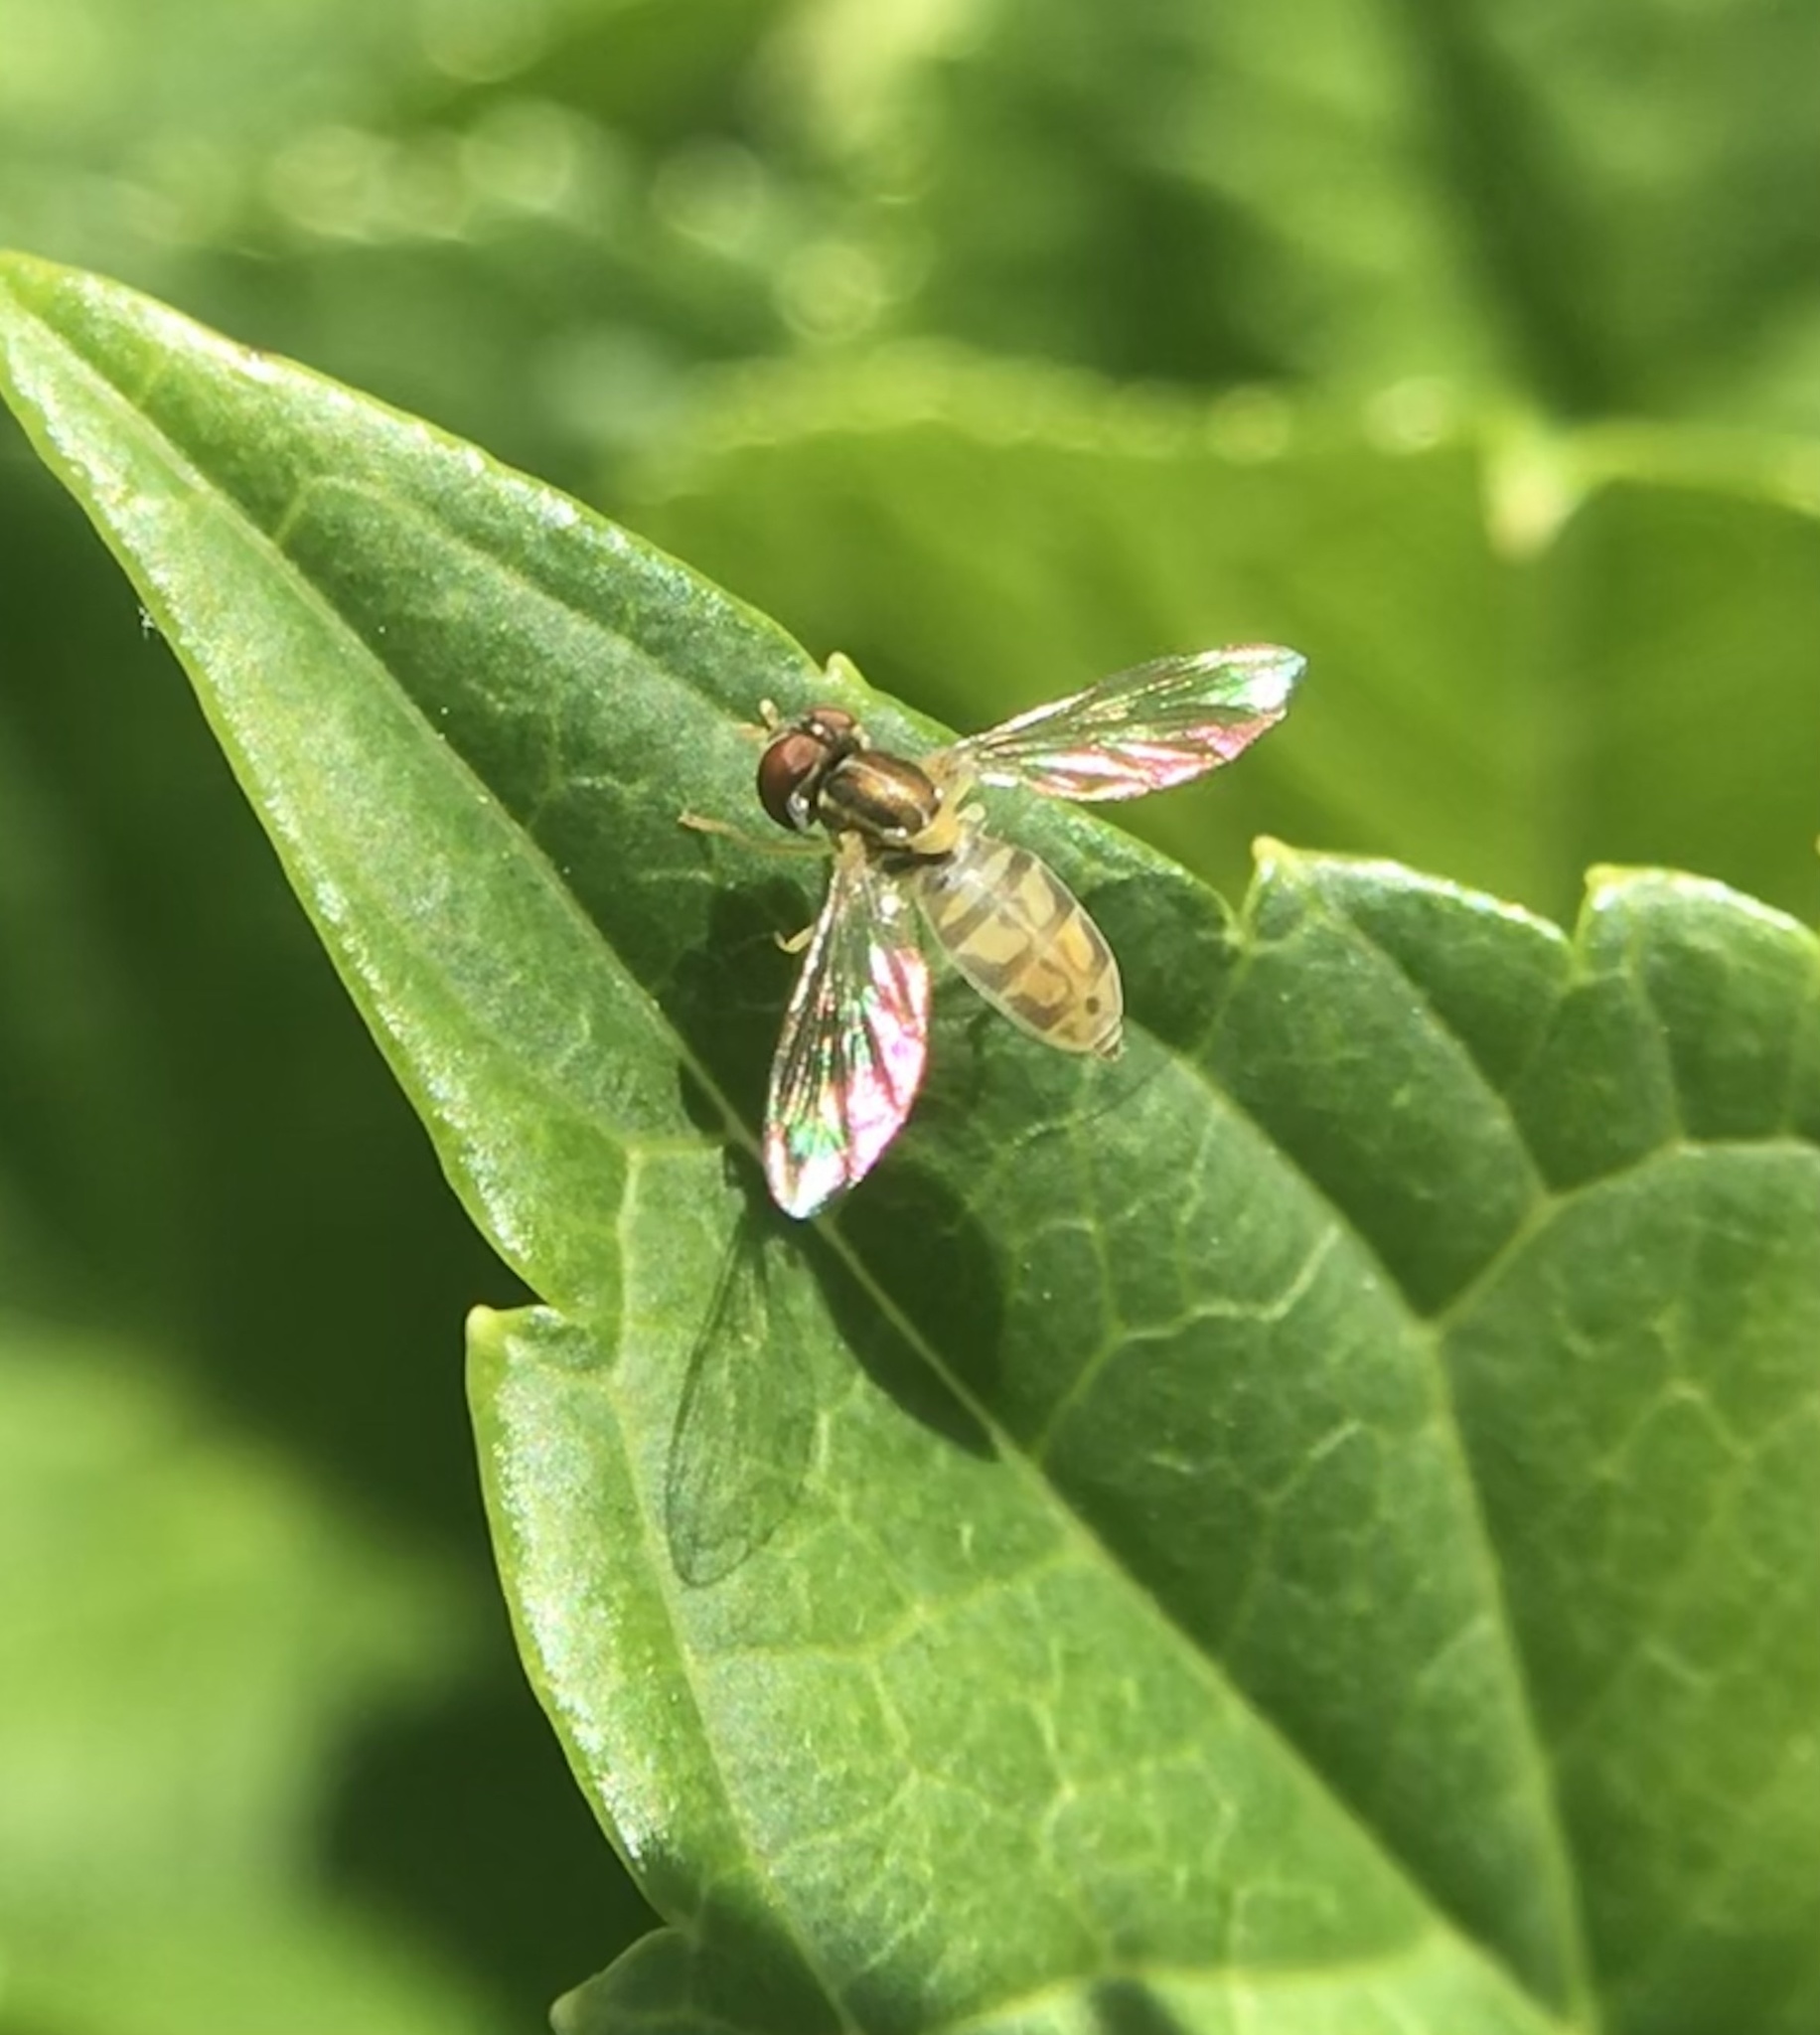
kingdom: Animalia
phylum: Arthropoda
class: Insecta
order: Diptera
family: Syrphidae
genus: Toxomerus
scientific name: Toxomerus marginatus
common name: Syrphid fly
